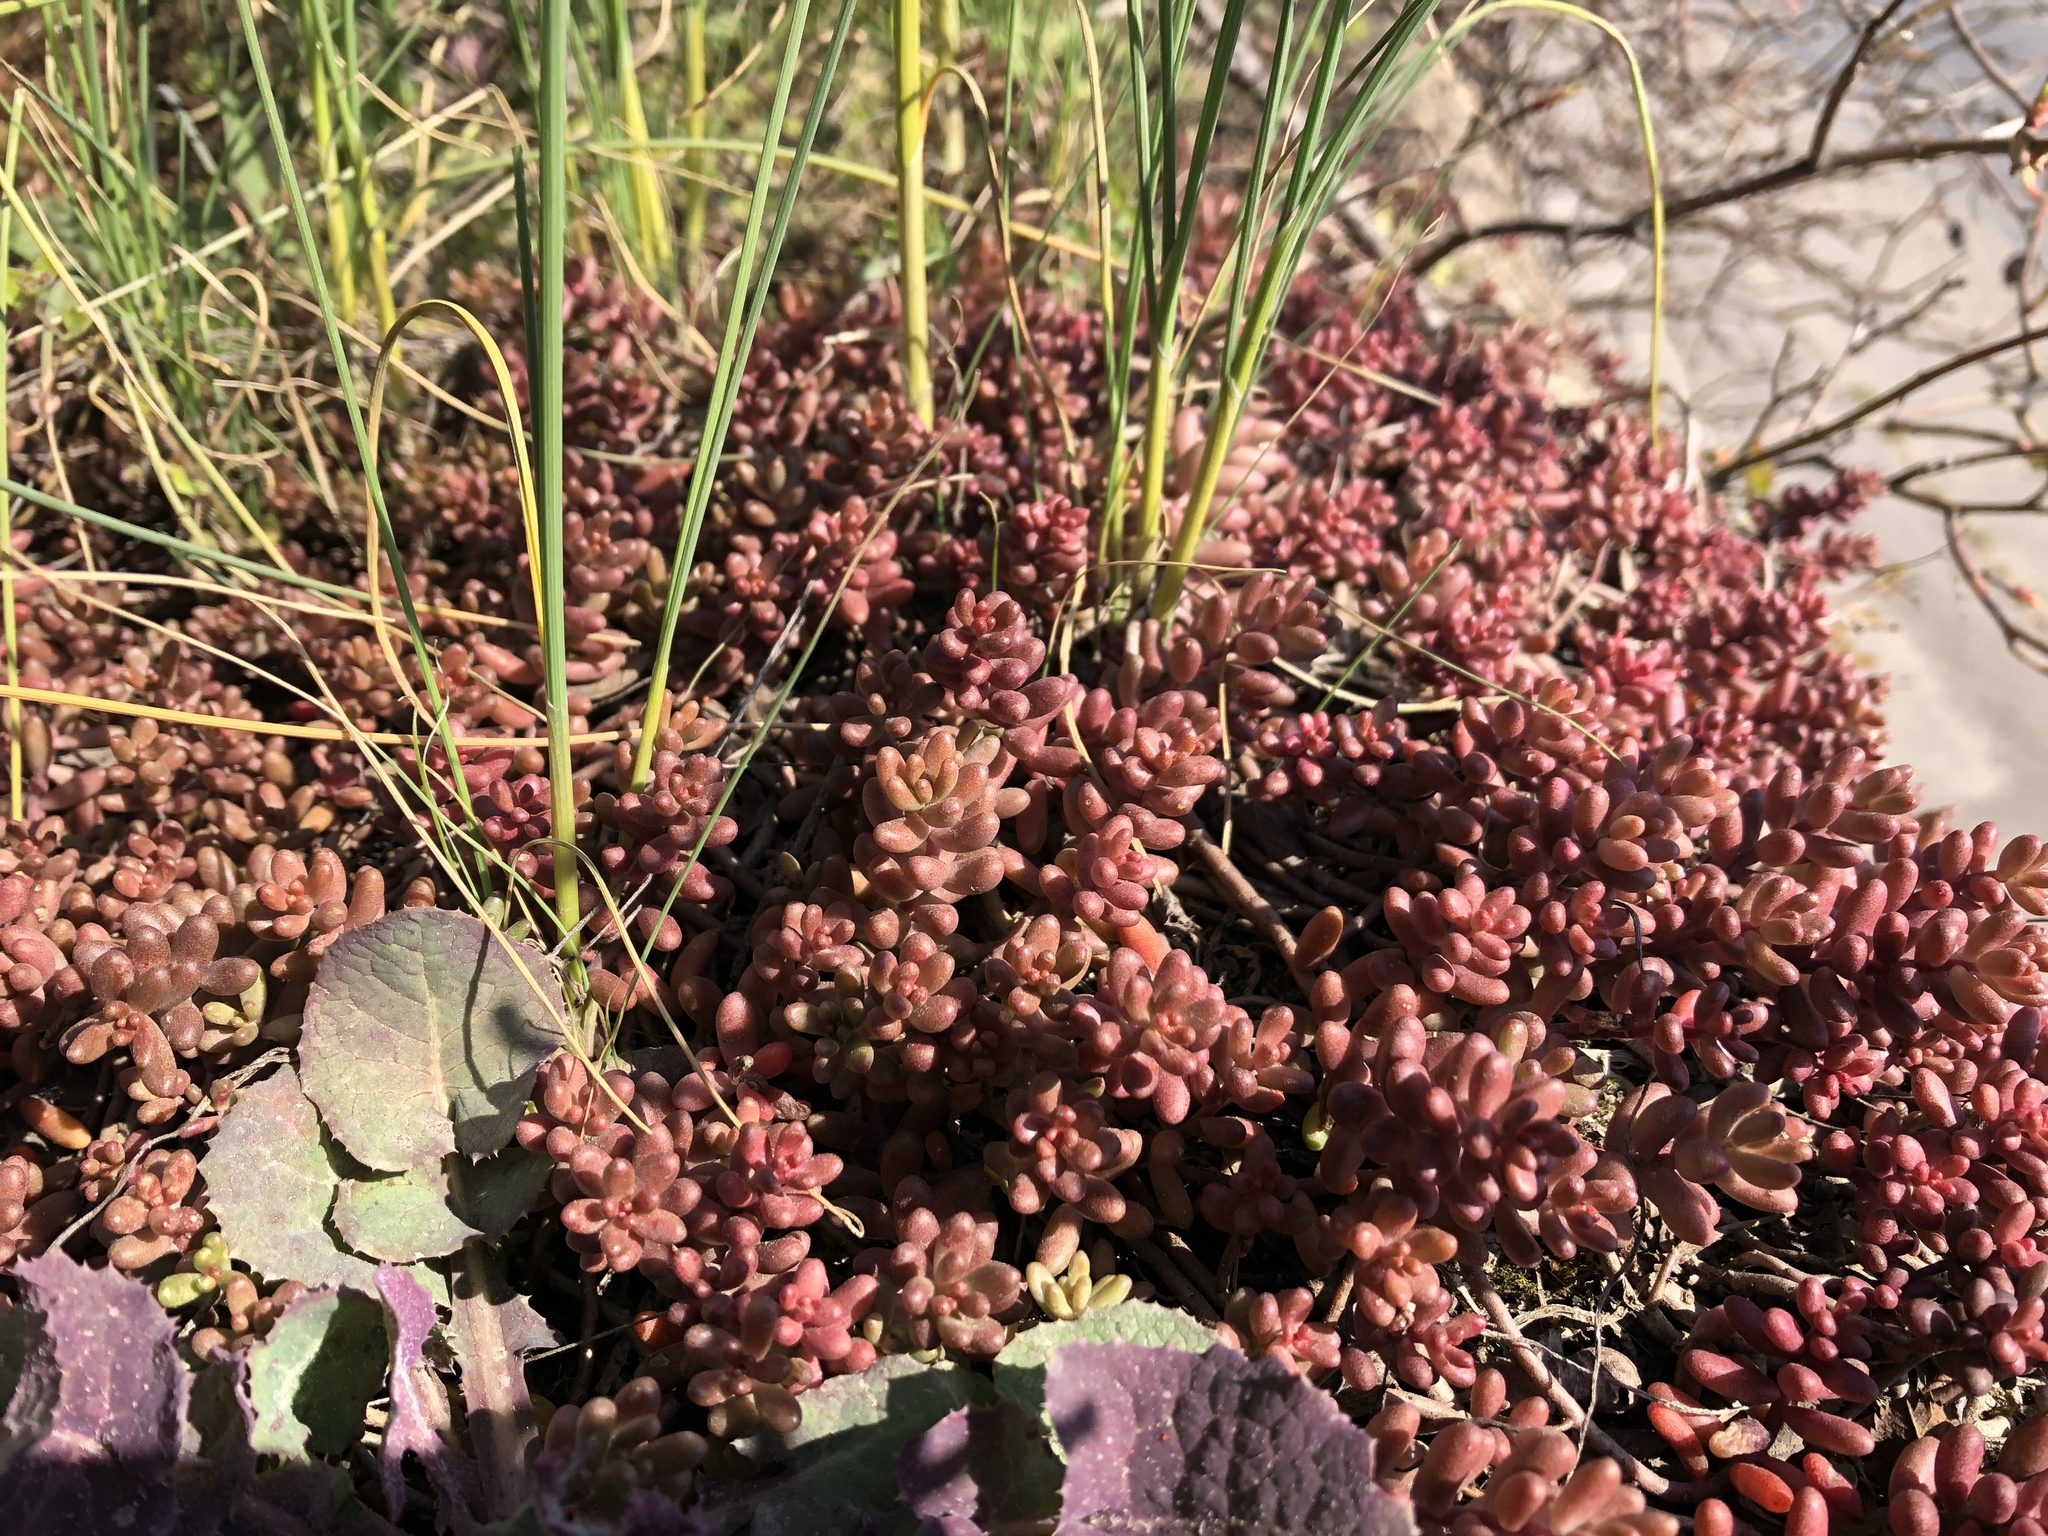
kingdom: Plantae
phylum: Tracheophyta
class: Magnoliopsida
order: Saxifragales
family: Crassulaceae
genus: Sedum
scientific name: Sedum album
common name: White stonecrop
